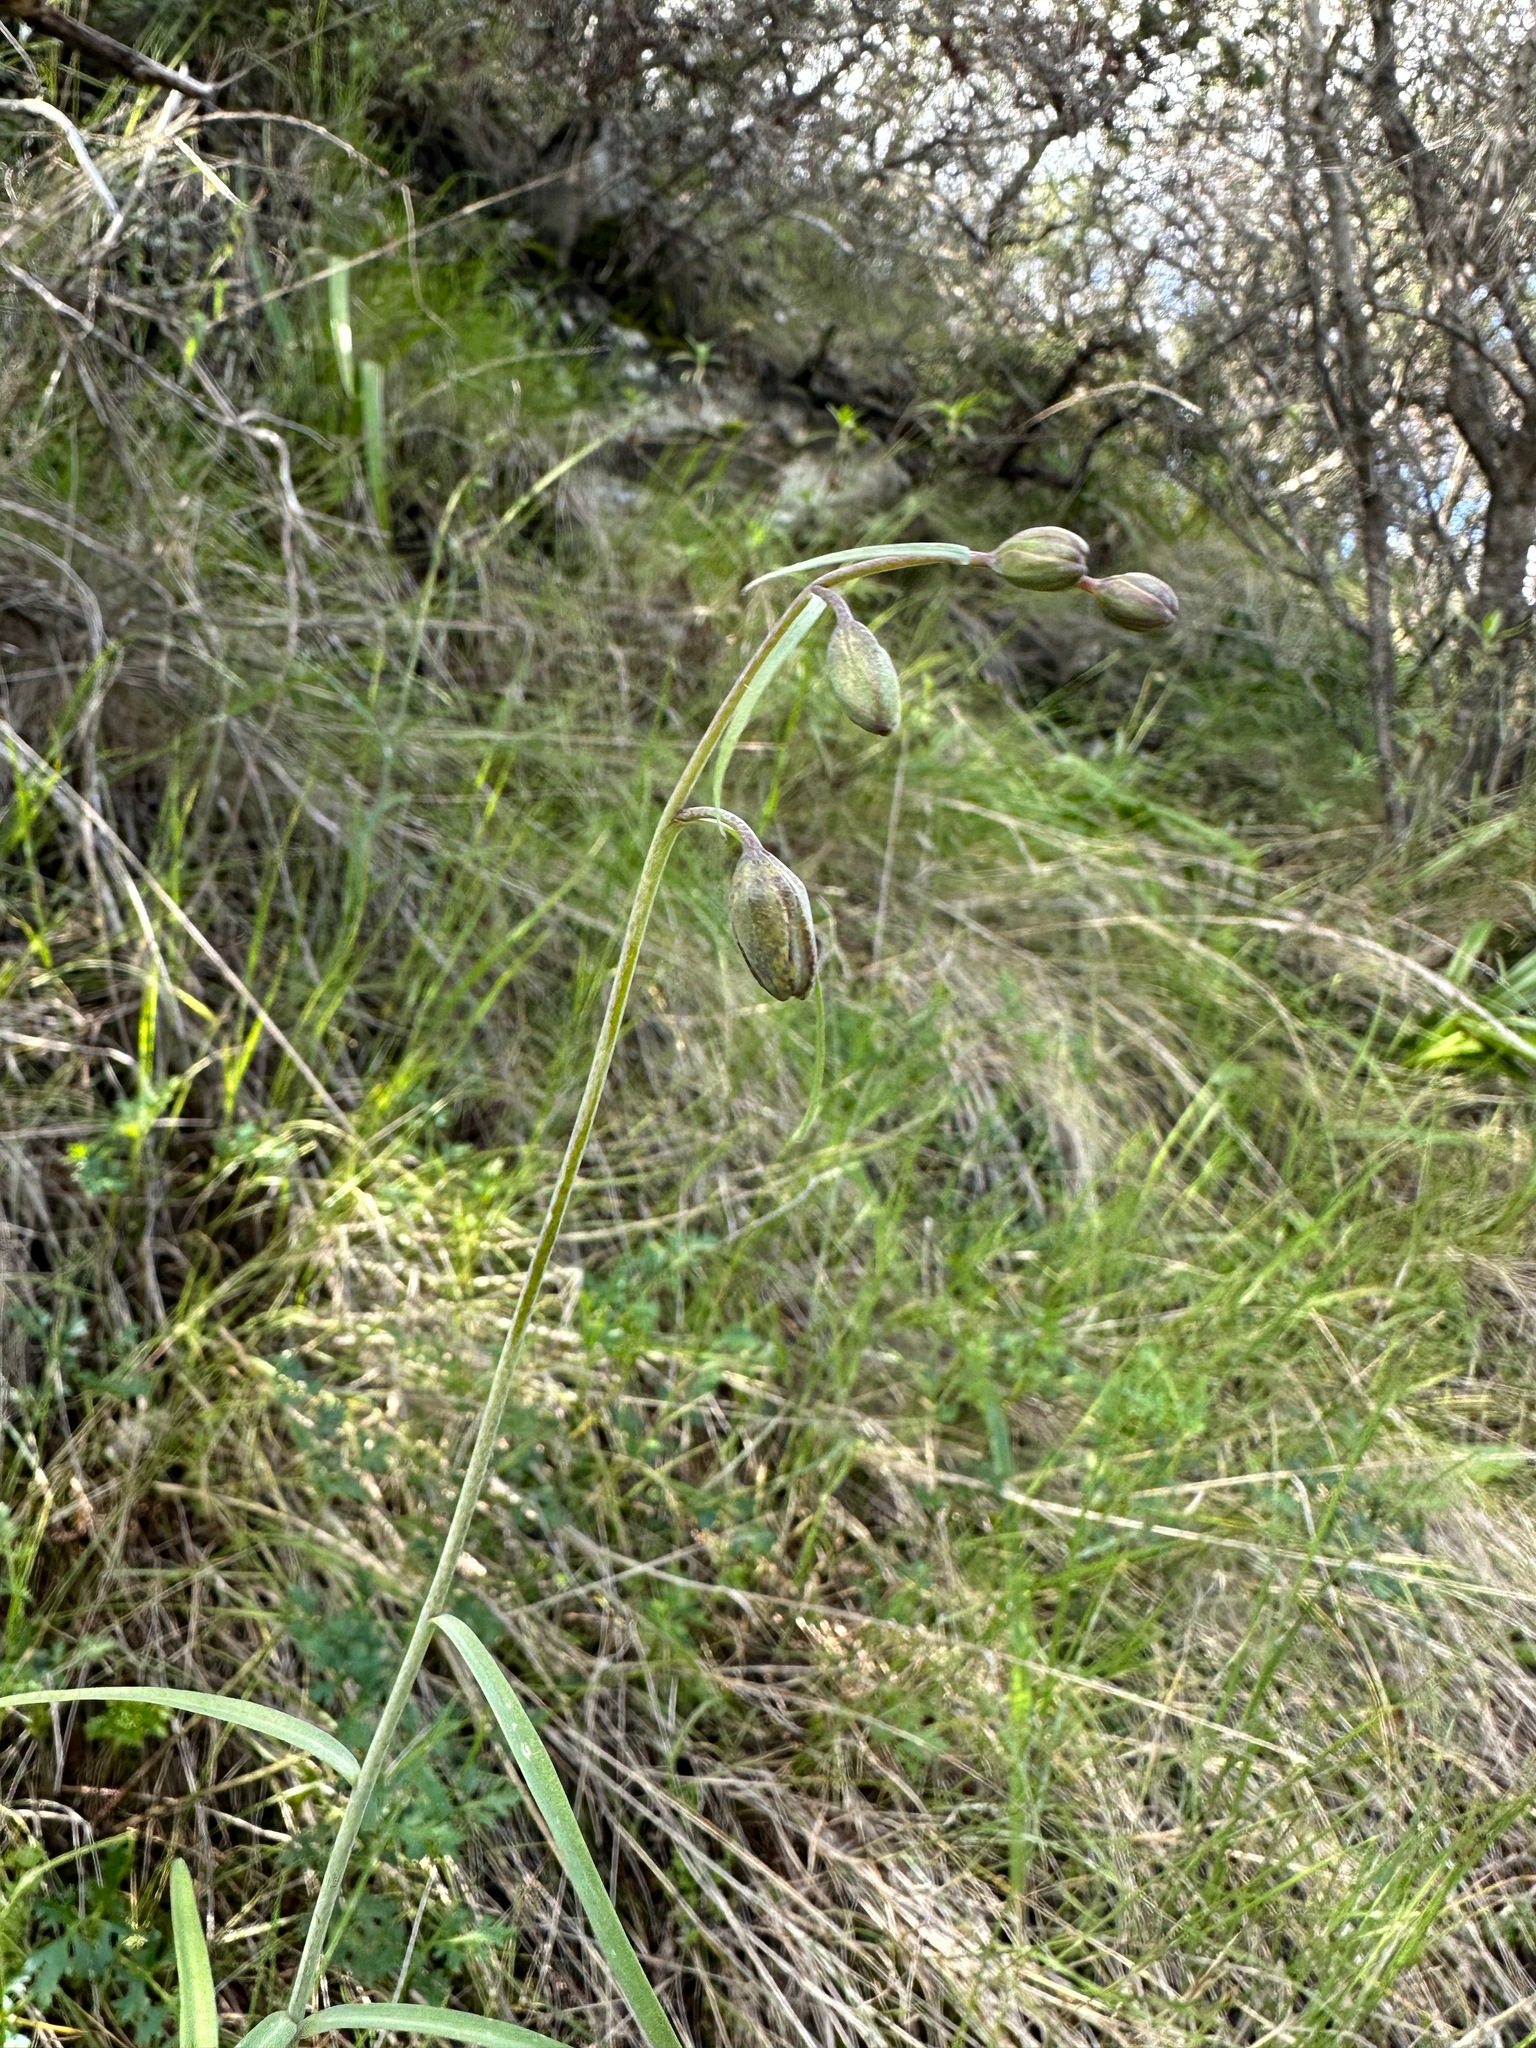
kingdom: Plantae
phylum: Tracheophyta
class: Liliopsida
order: Liliales
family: Liliaceae
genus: Fritillaria
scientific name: Fritillaria ojaiensis
